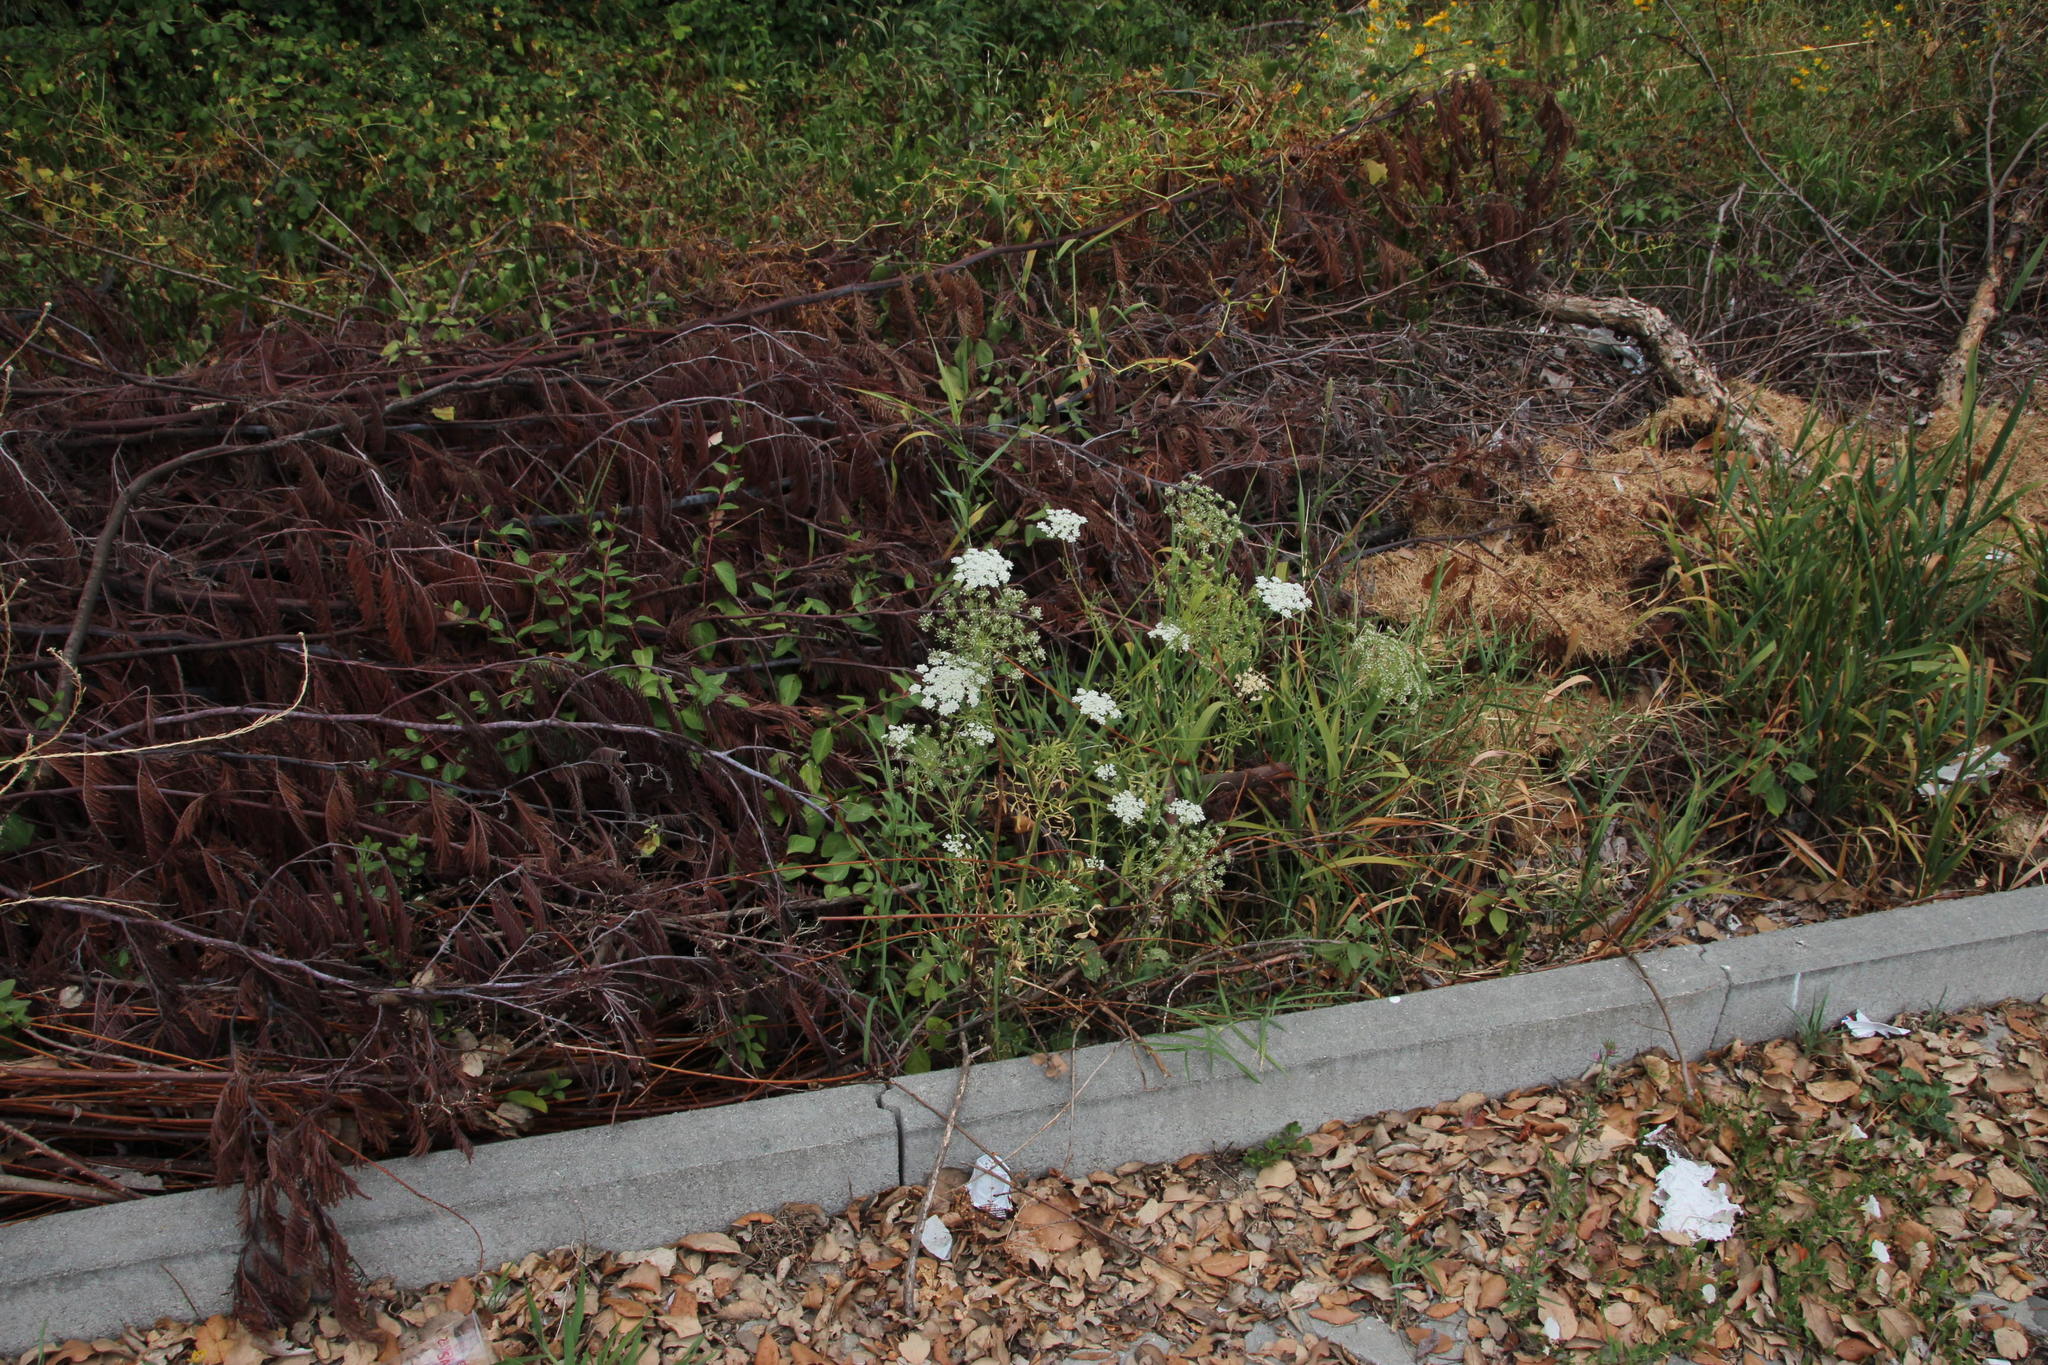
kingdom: Plantae
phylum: Tracheophyta
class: Magnoliopsida
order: Apiales
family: Apiaceae
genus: Ammi
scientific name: Ammi majus
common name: Bullwort
